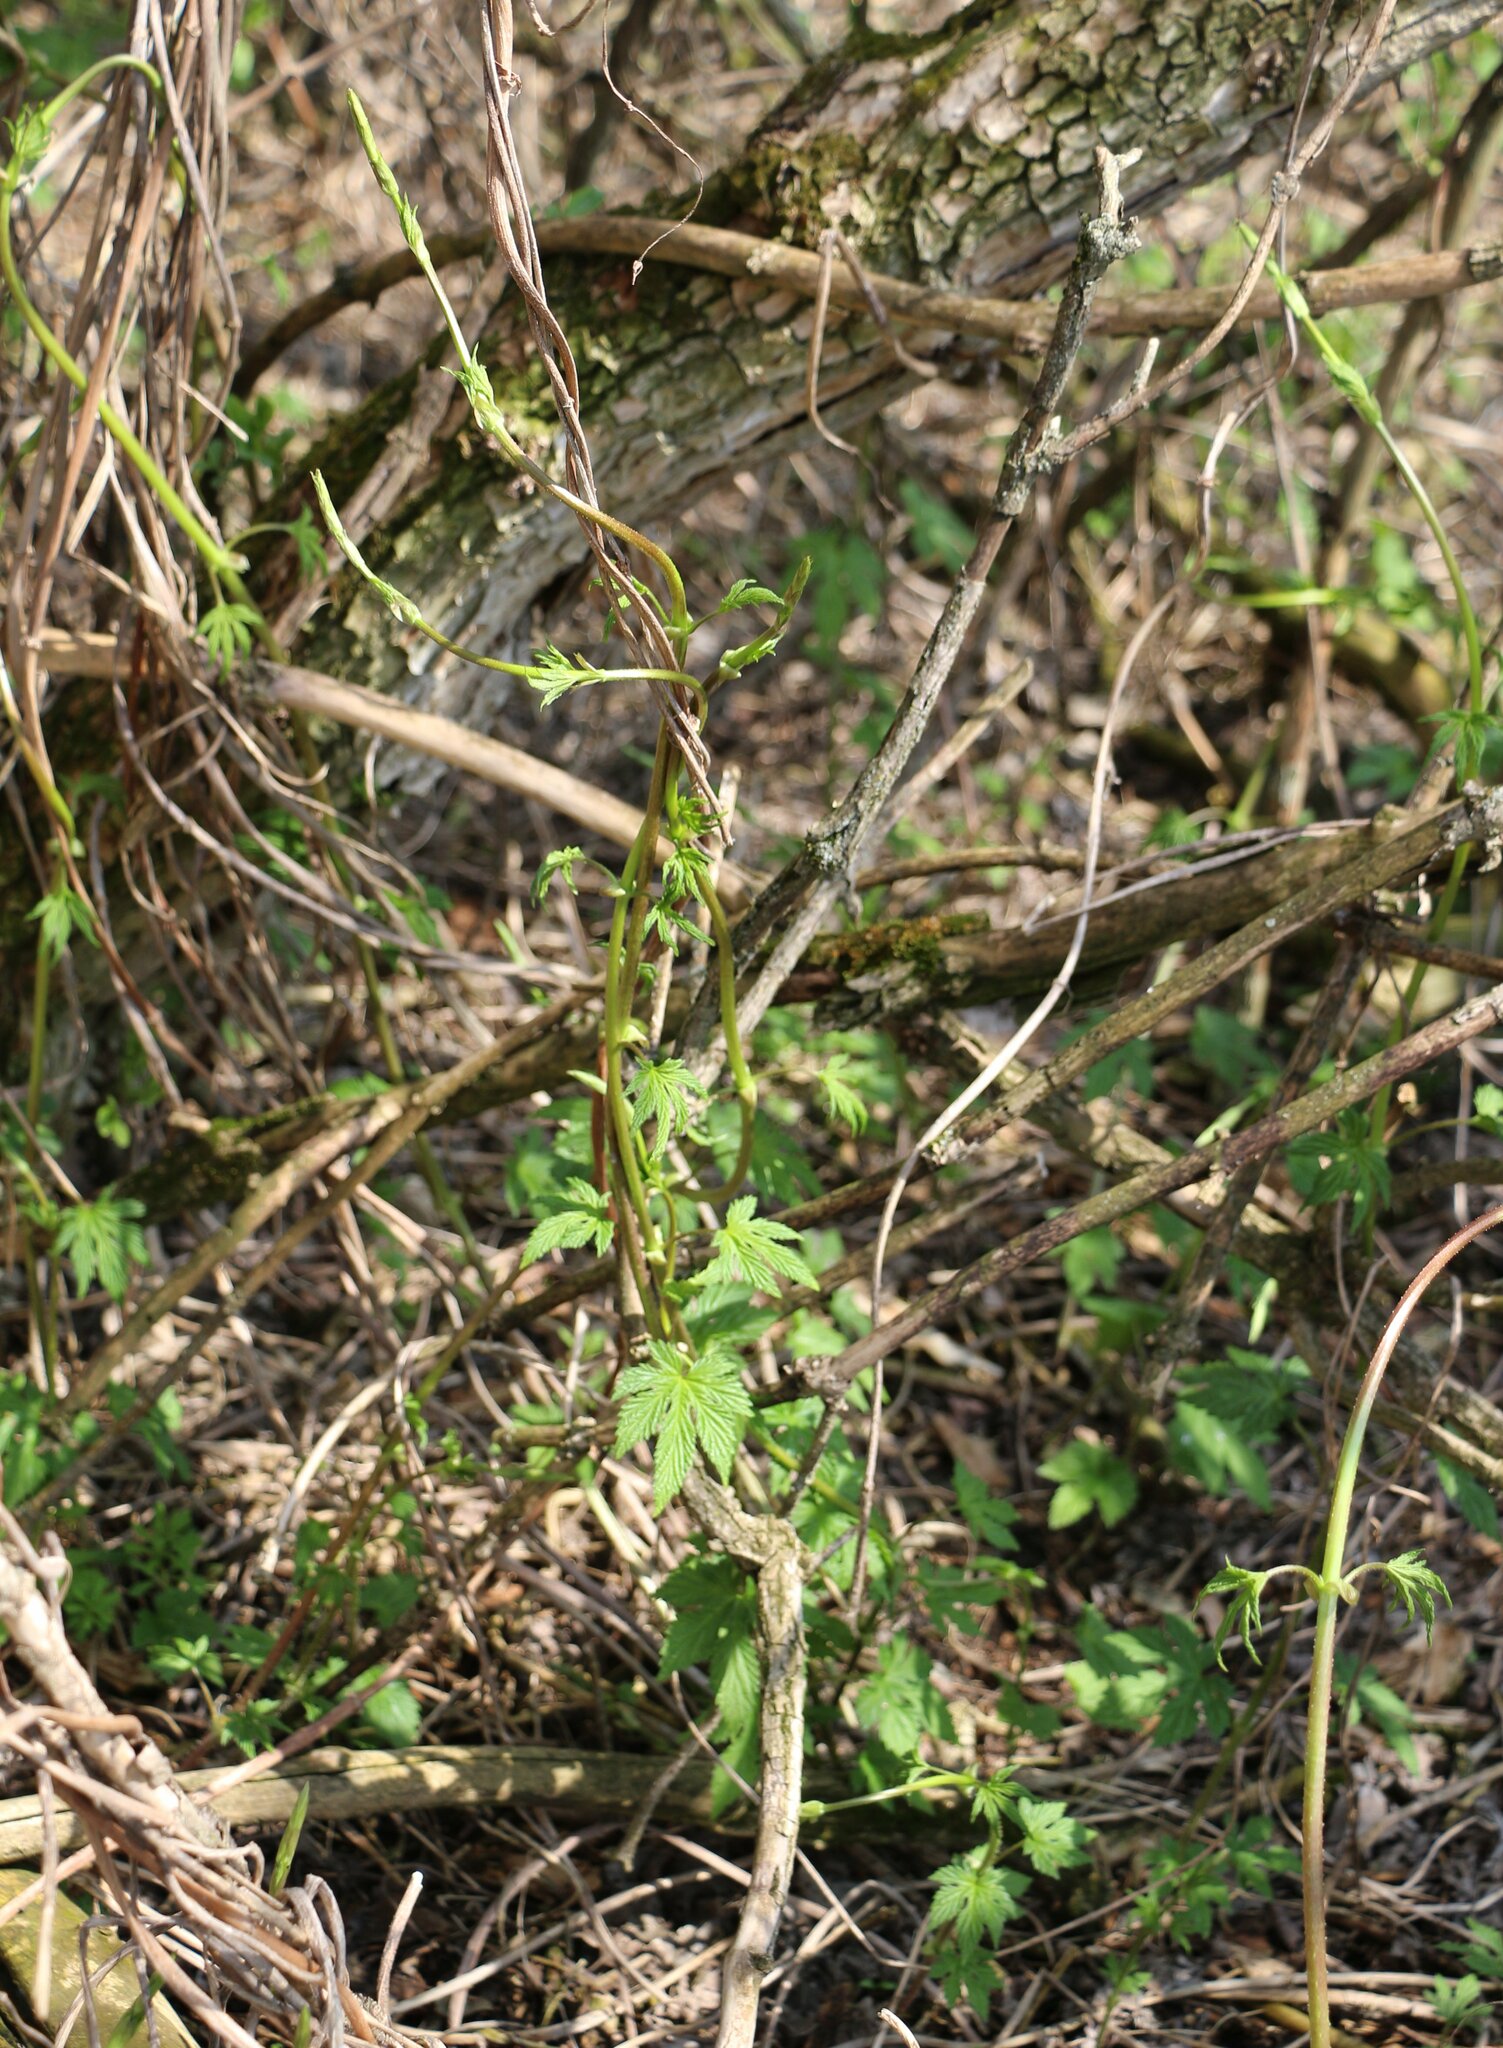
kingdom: Plantae
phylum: Tracheophyta
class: Magnoliopsida
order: Rosales
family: Cannabaceae
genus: Humulus
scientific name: Humulus lupulus
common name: Hop
